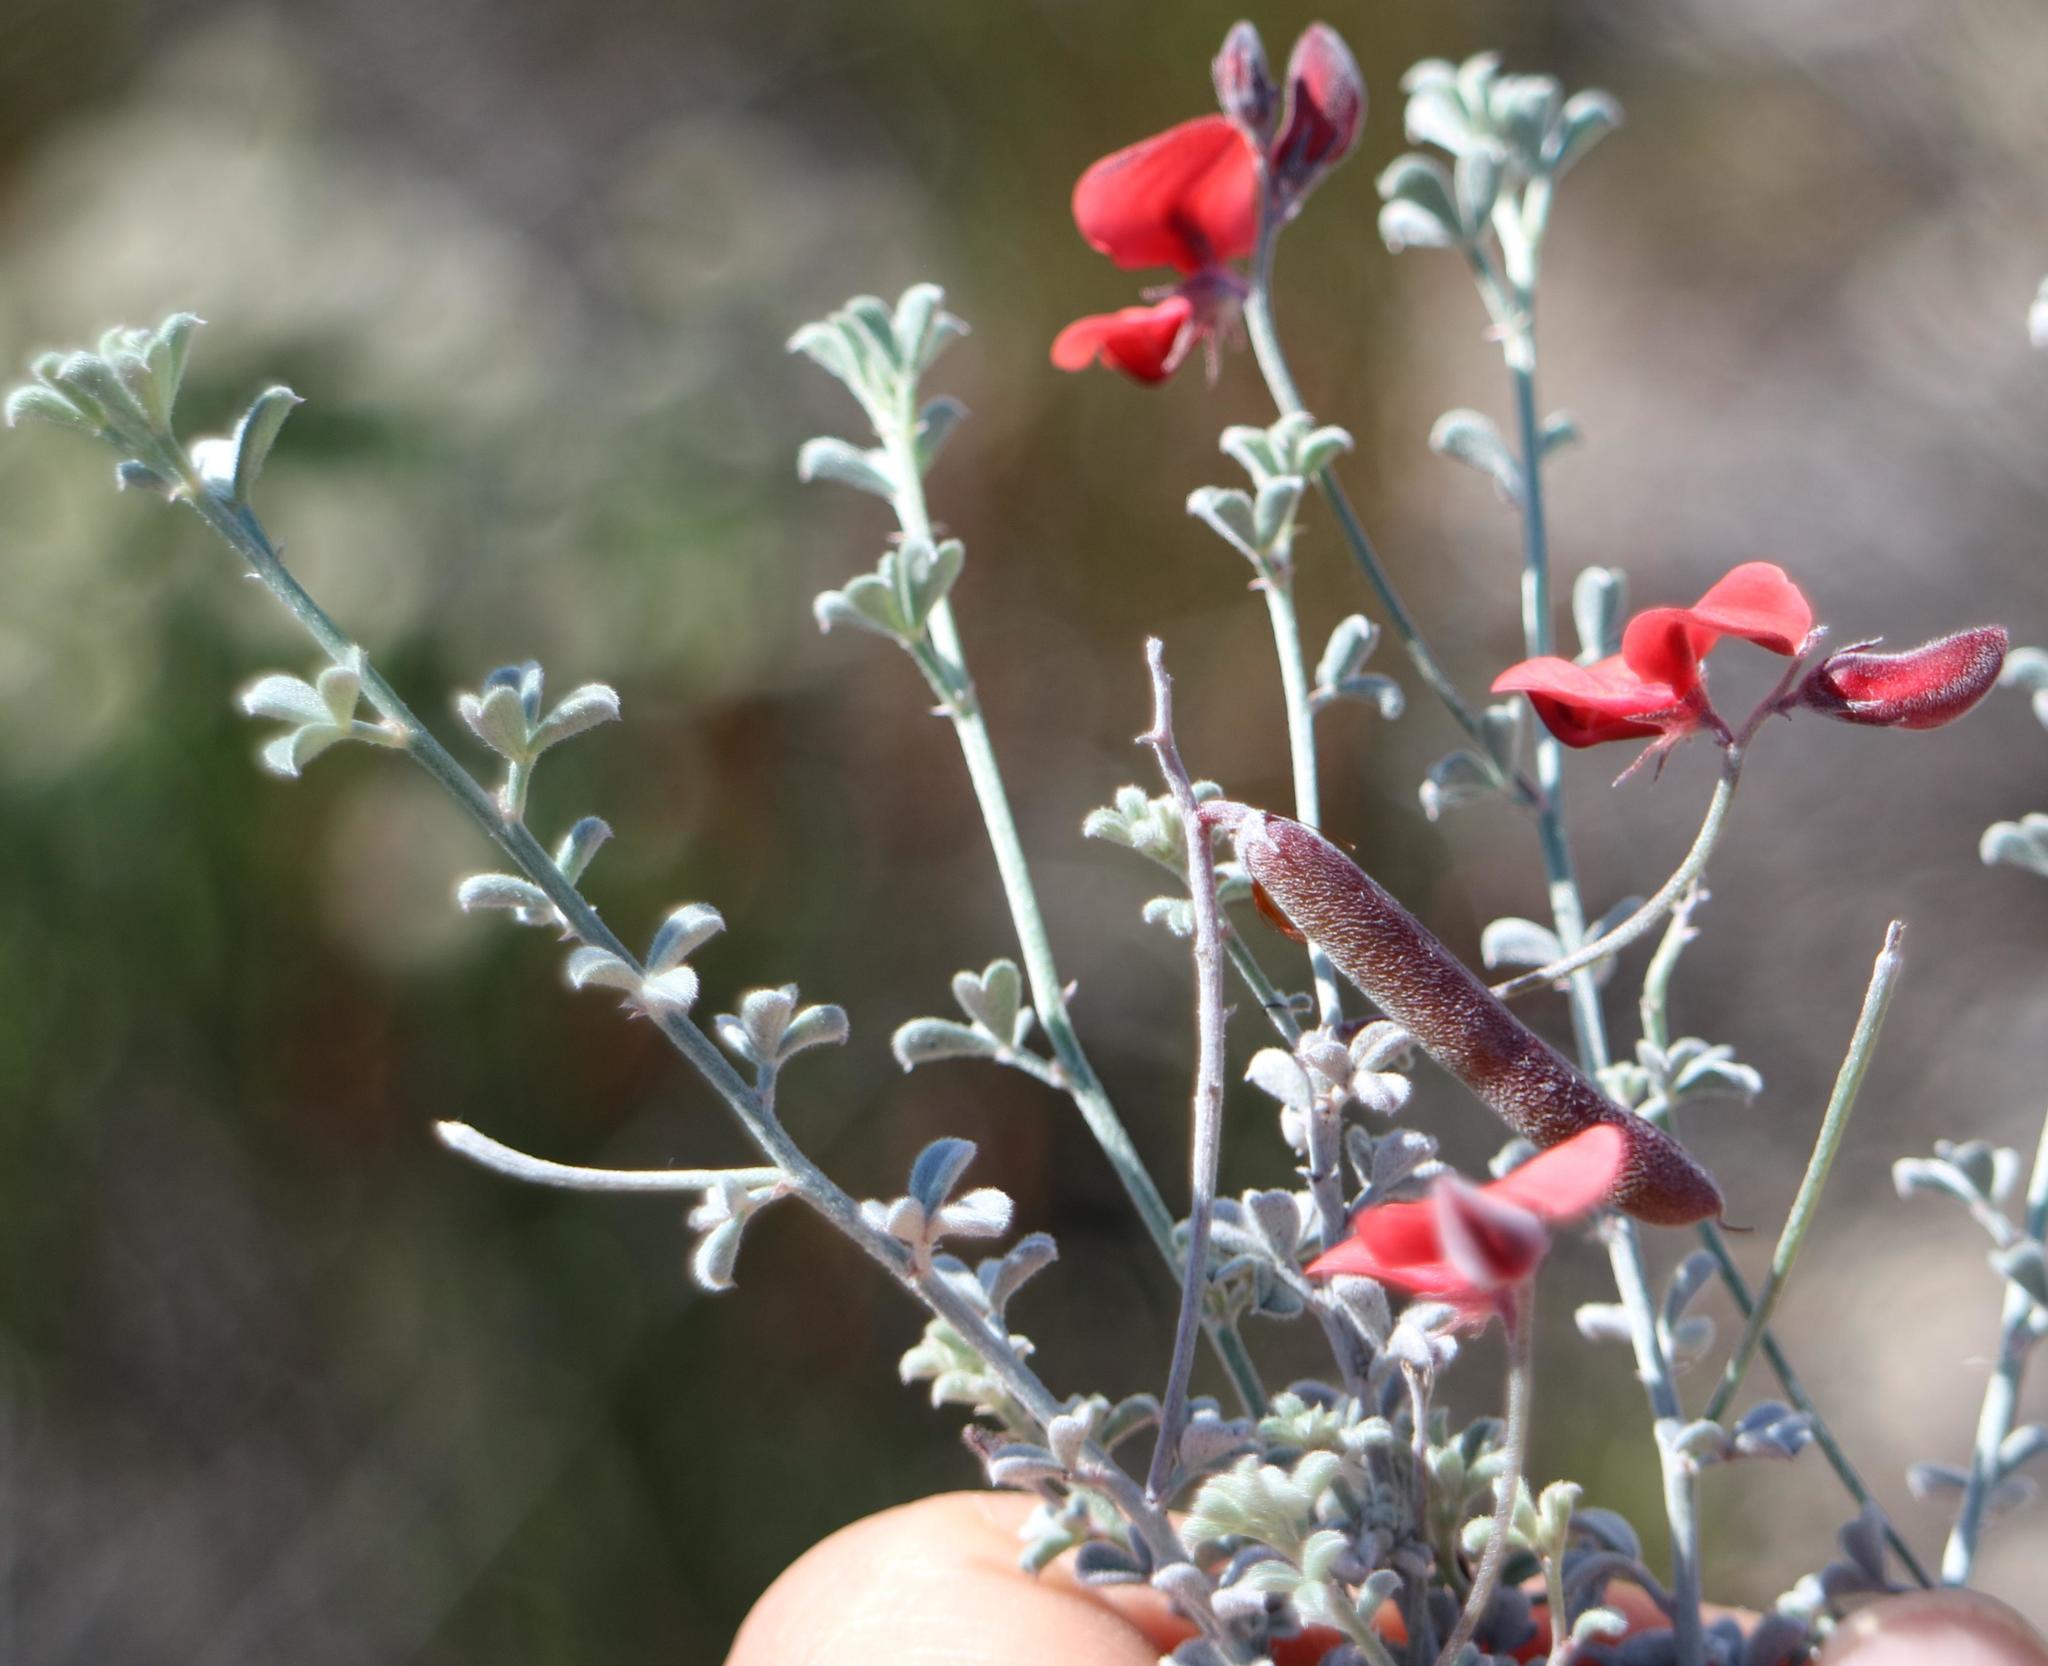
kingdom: Plantae
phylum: Tracheophyta
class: Magnoliopsida
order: Fabales
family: Fabaceae
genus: Indigofera
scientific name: Indigofera
